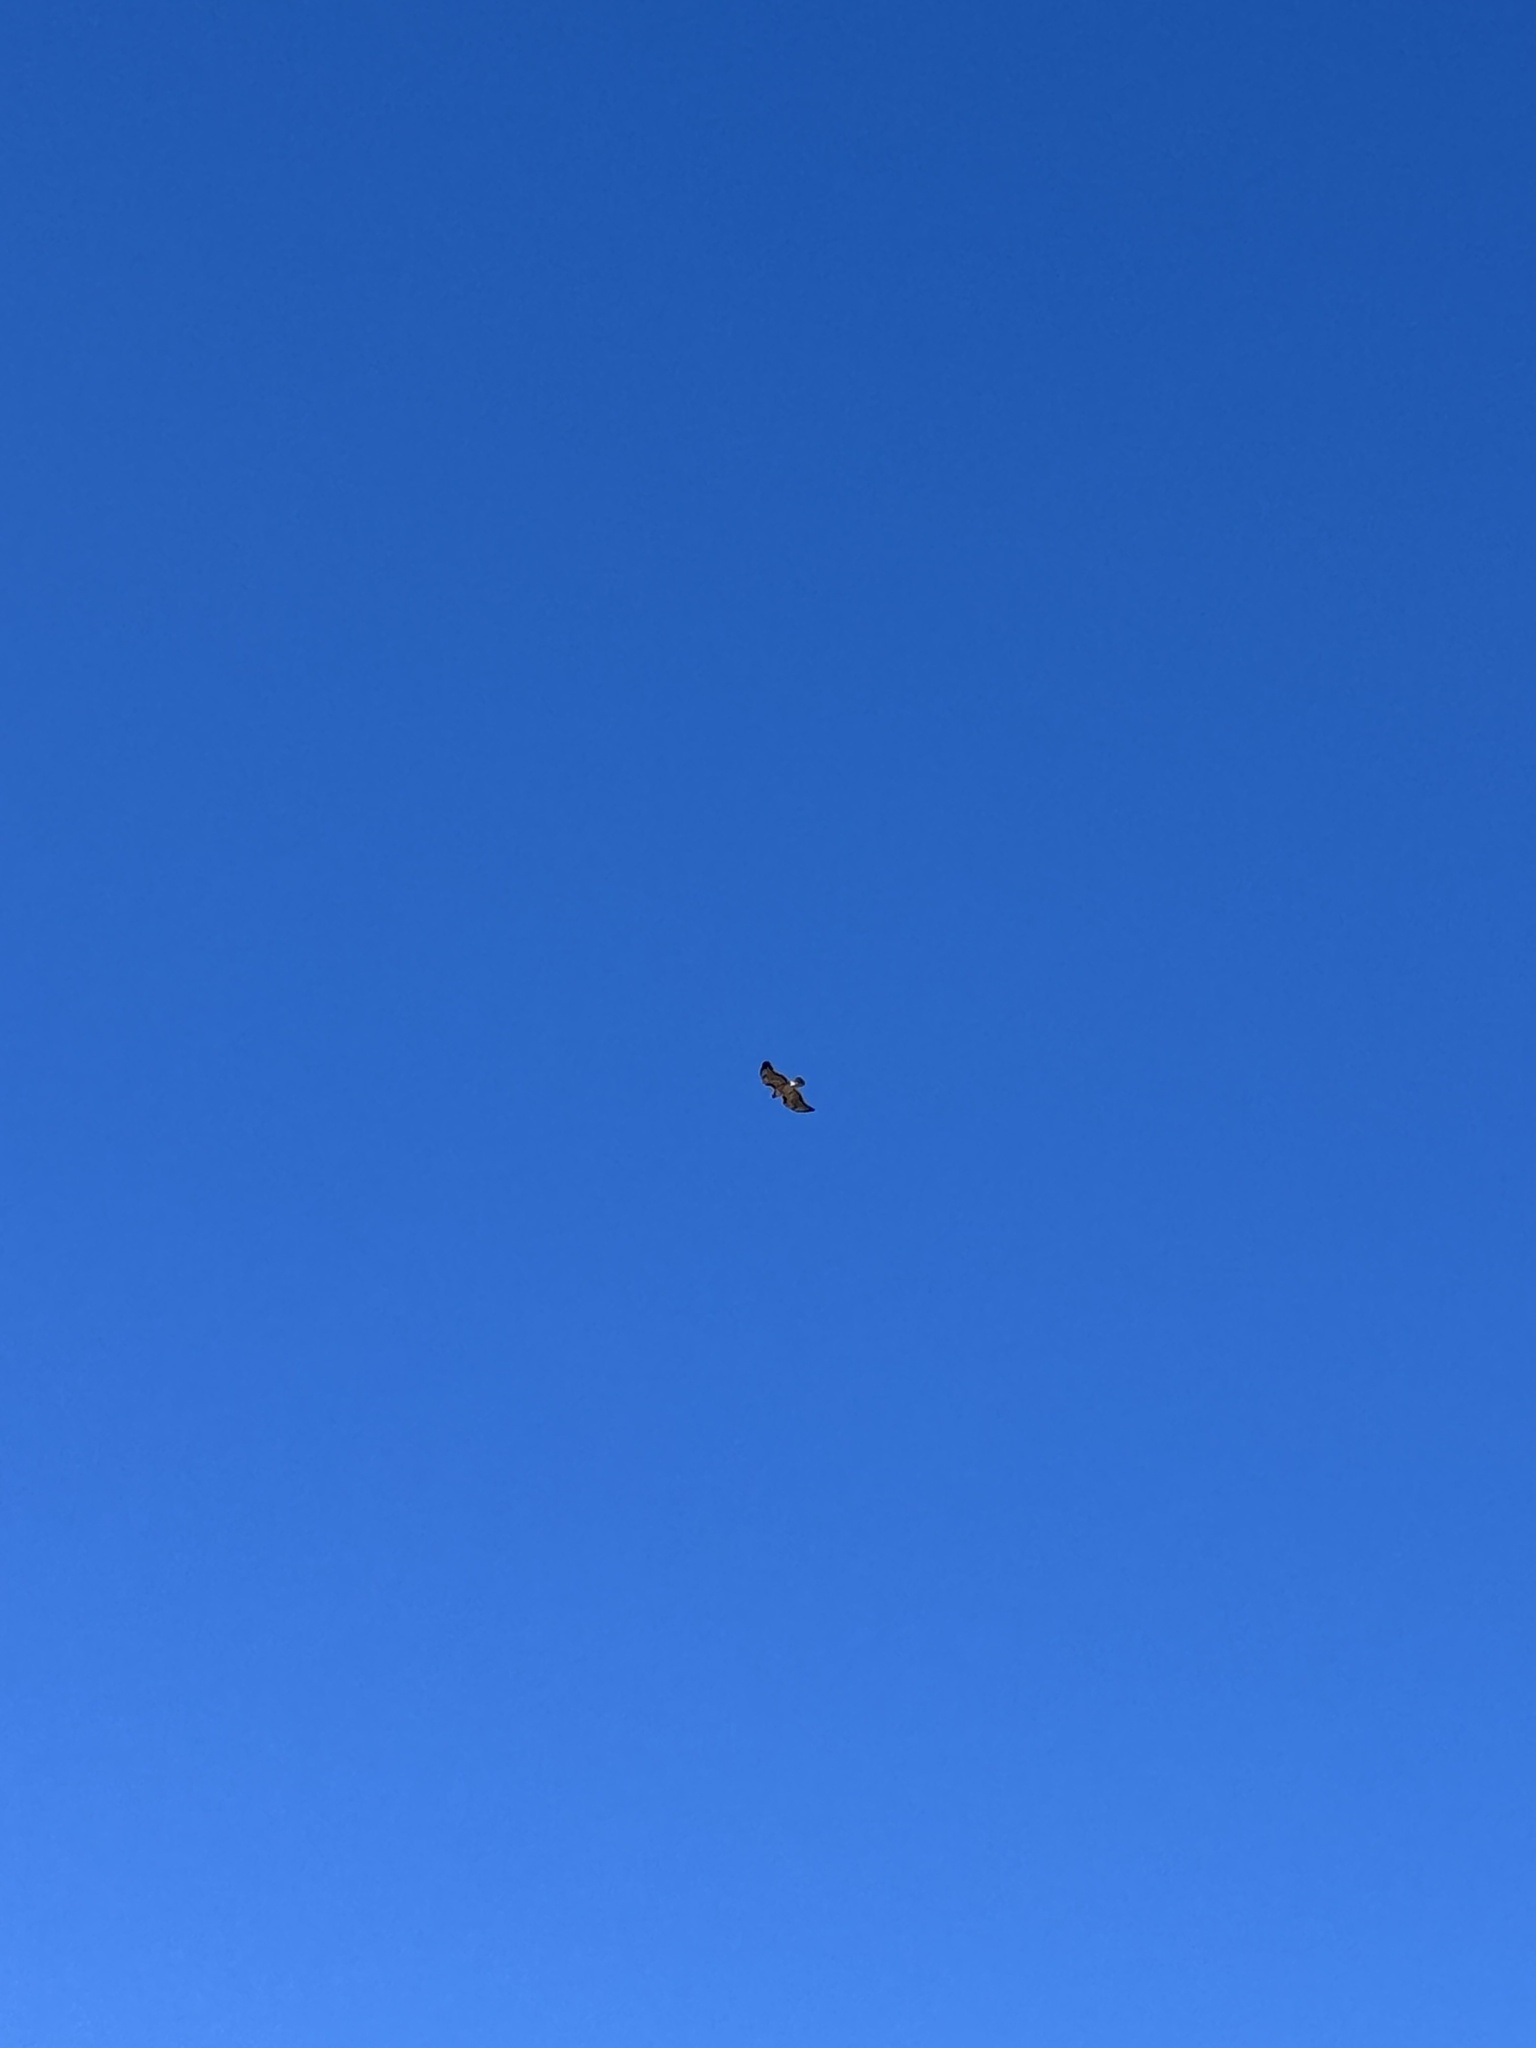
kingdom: Animalia
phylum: Chordata
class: Aves
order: Accipitriformes
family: Accipitridae
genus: Buteo
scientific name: Buteo jamaicensis
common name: Red-tailed hawk
